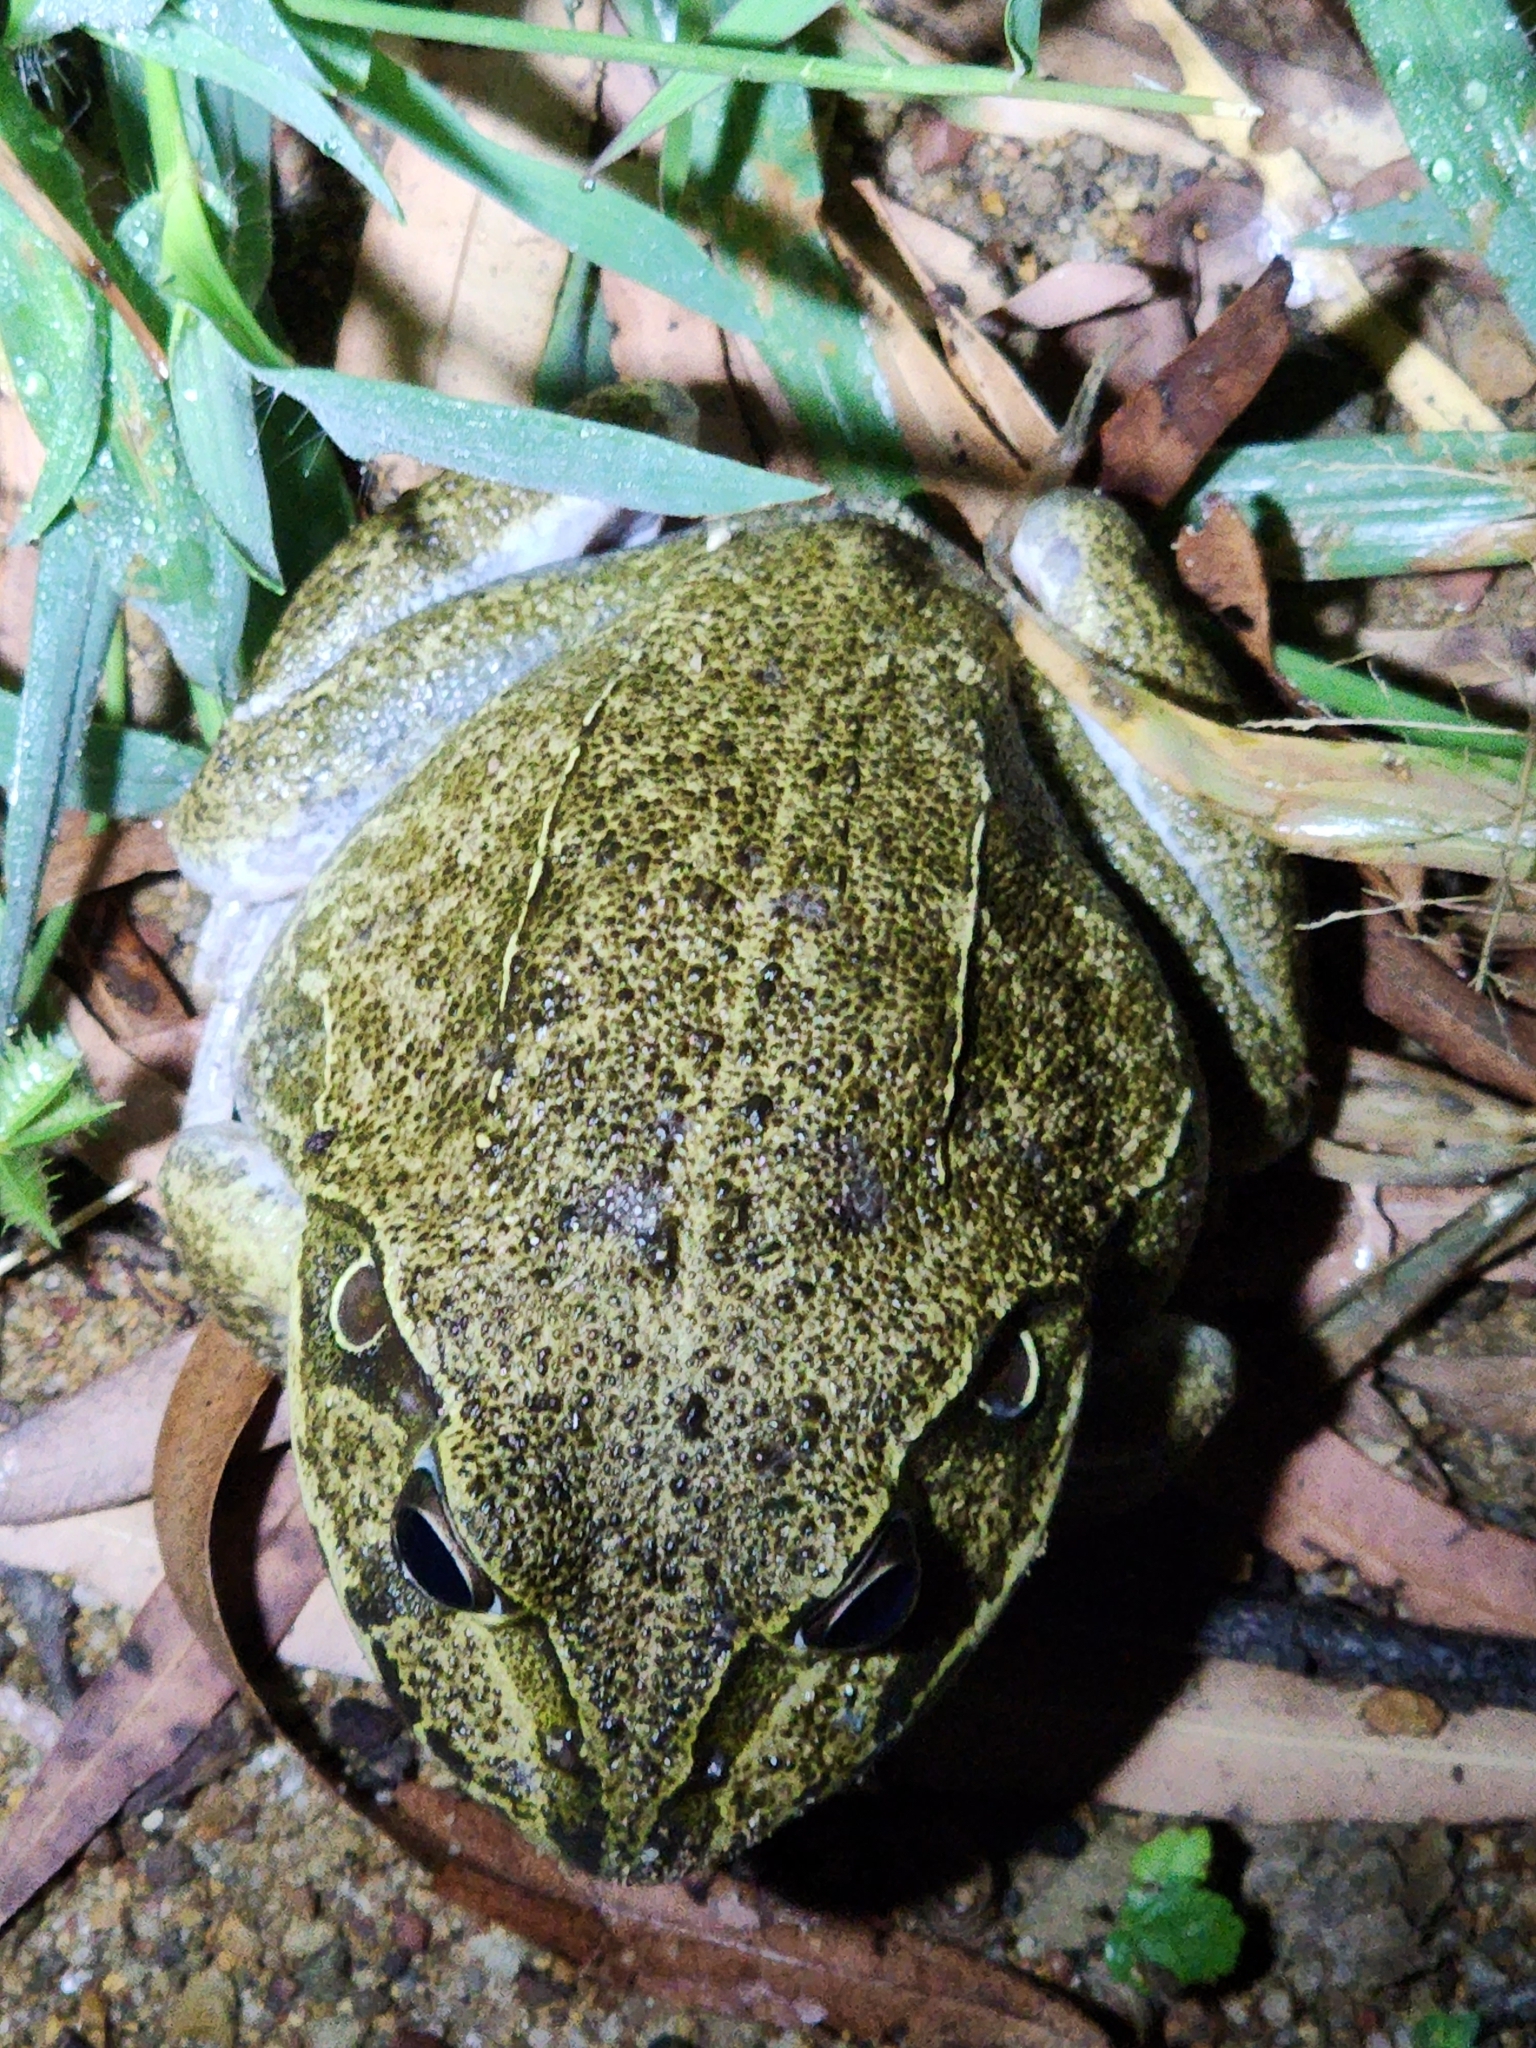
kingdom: Animalia
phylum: Chordata
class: Amphibia
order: Anura
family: Pelodryadidae
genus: Ranoidea
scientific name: Ranoidea novaehollandiae
